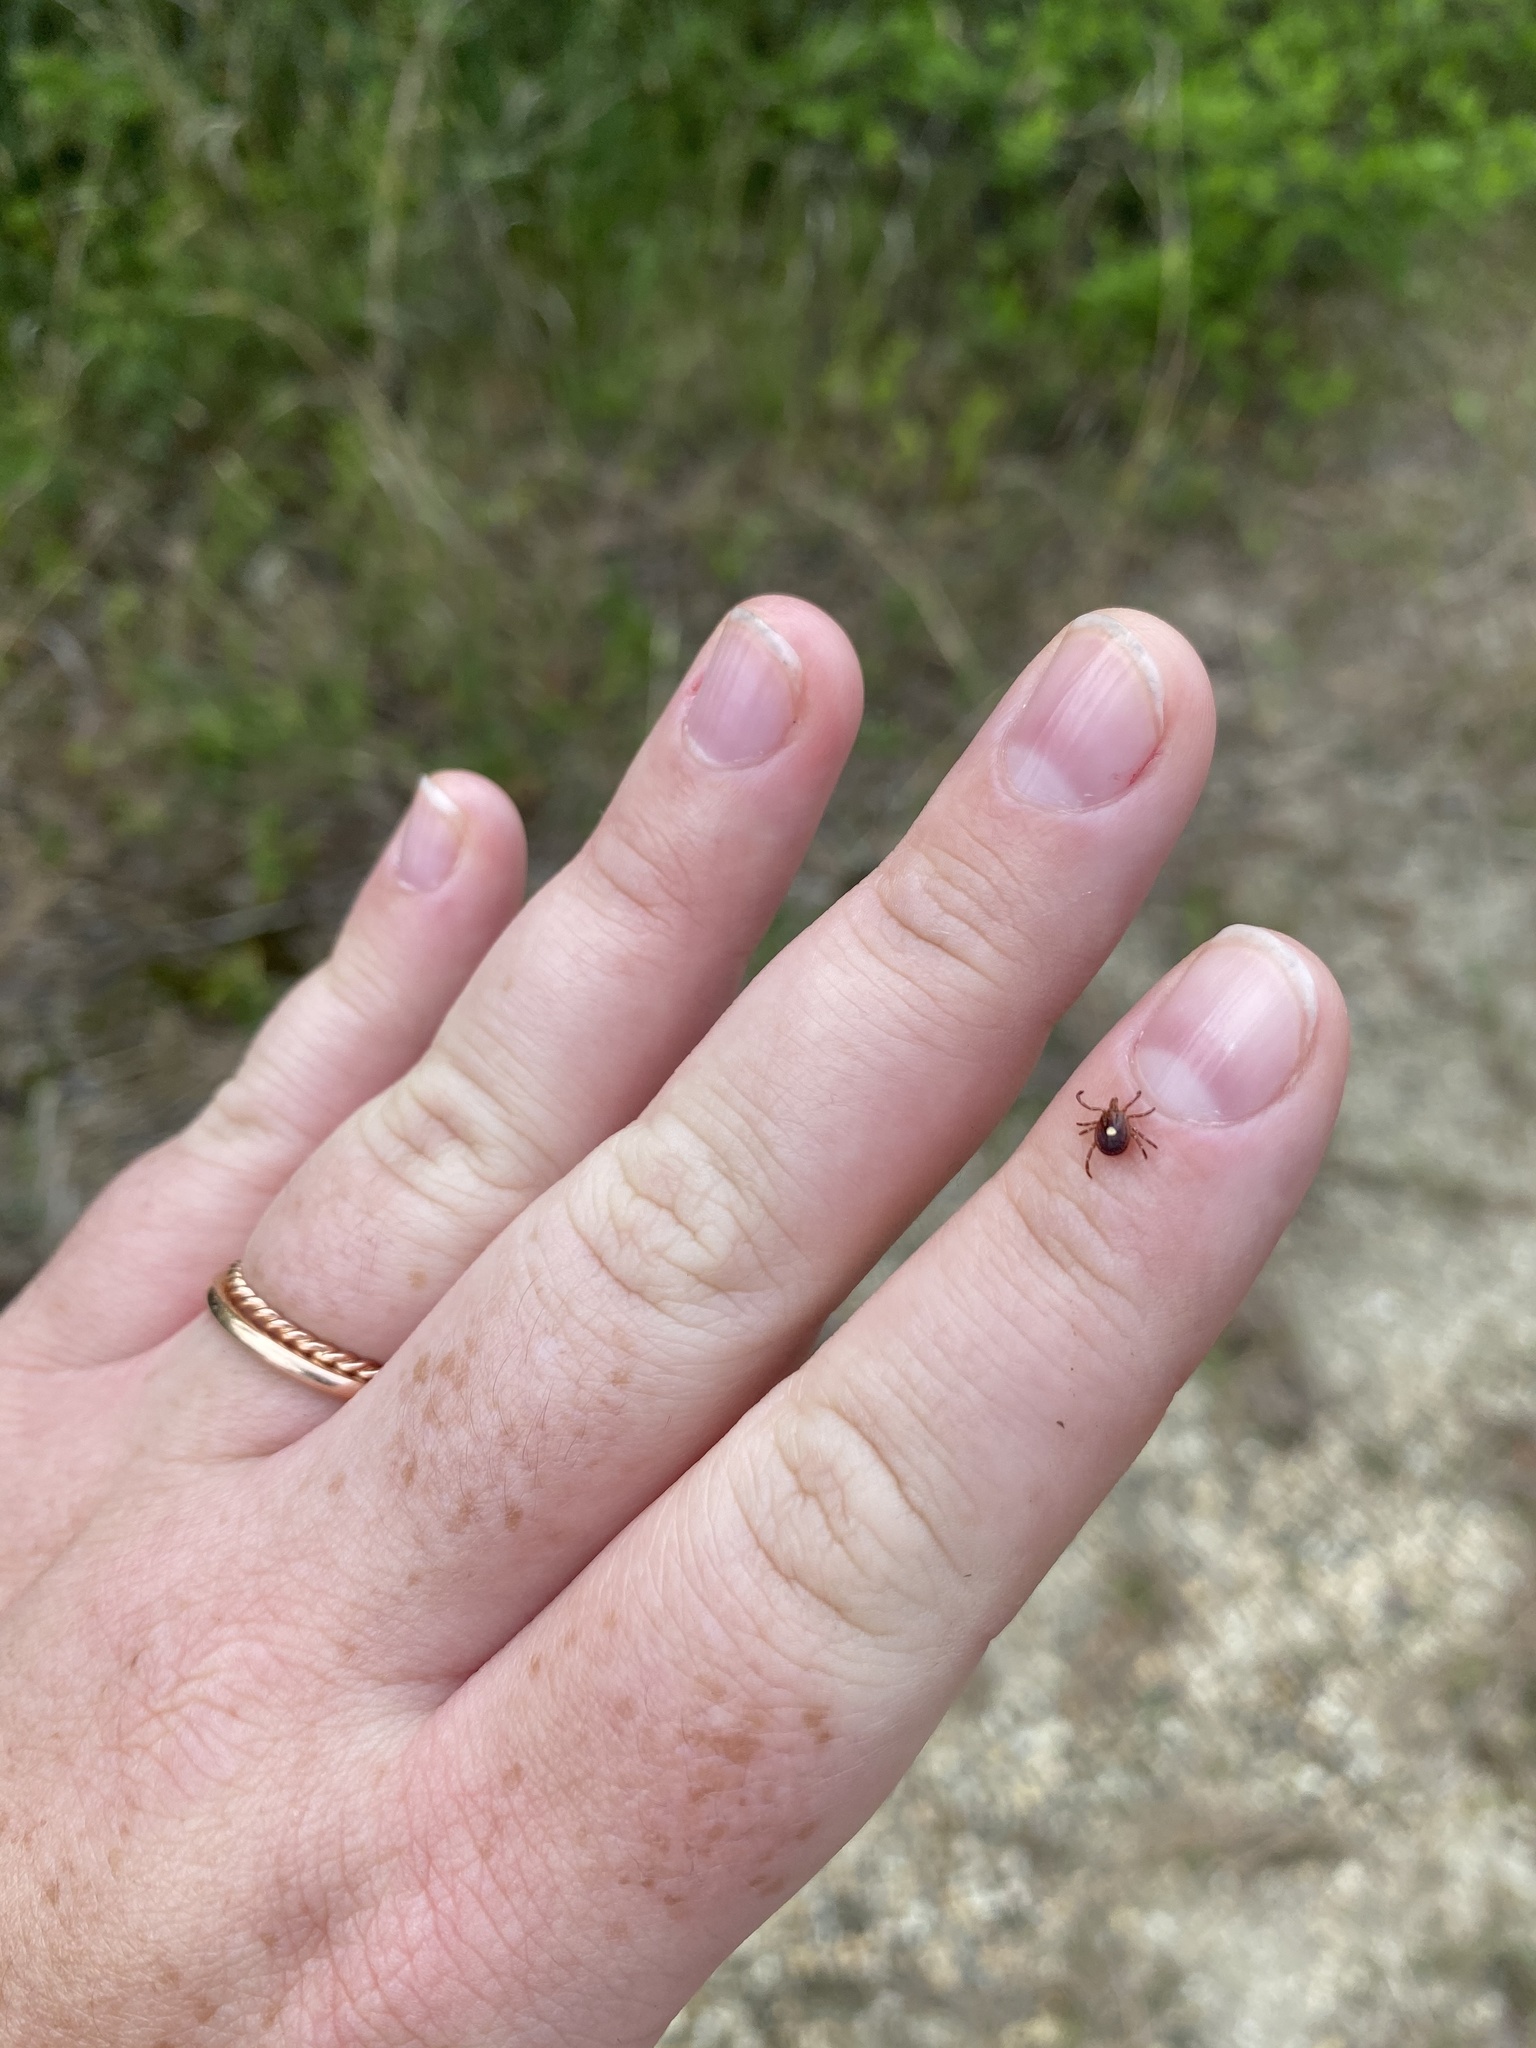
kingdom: Animalia
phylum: Arthropoda
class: Arachnida
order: Ixodida
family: Ixodidae
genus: Amblyomma
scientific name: Amblyomma americanum
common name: Lone star tick
